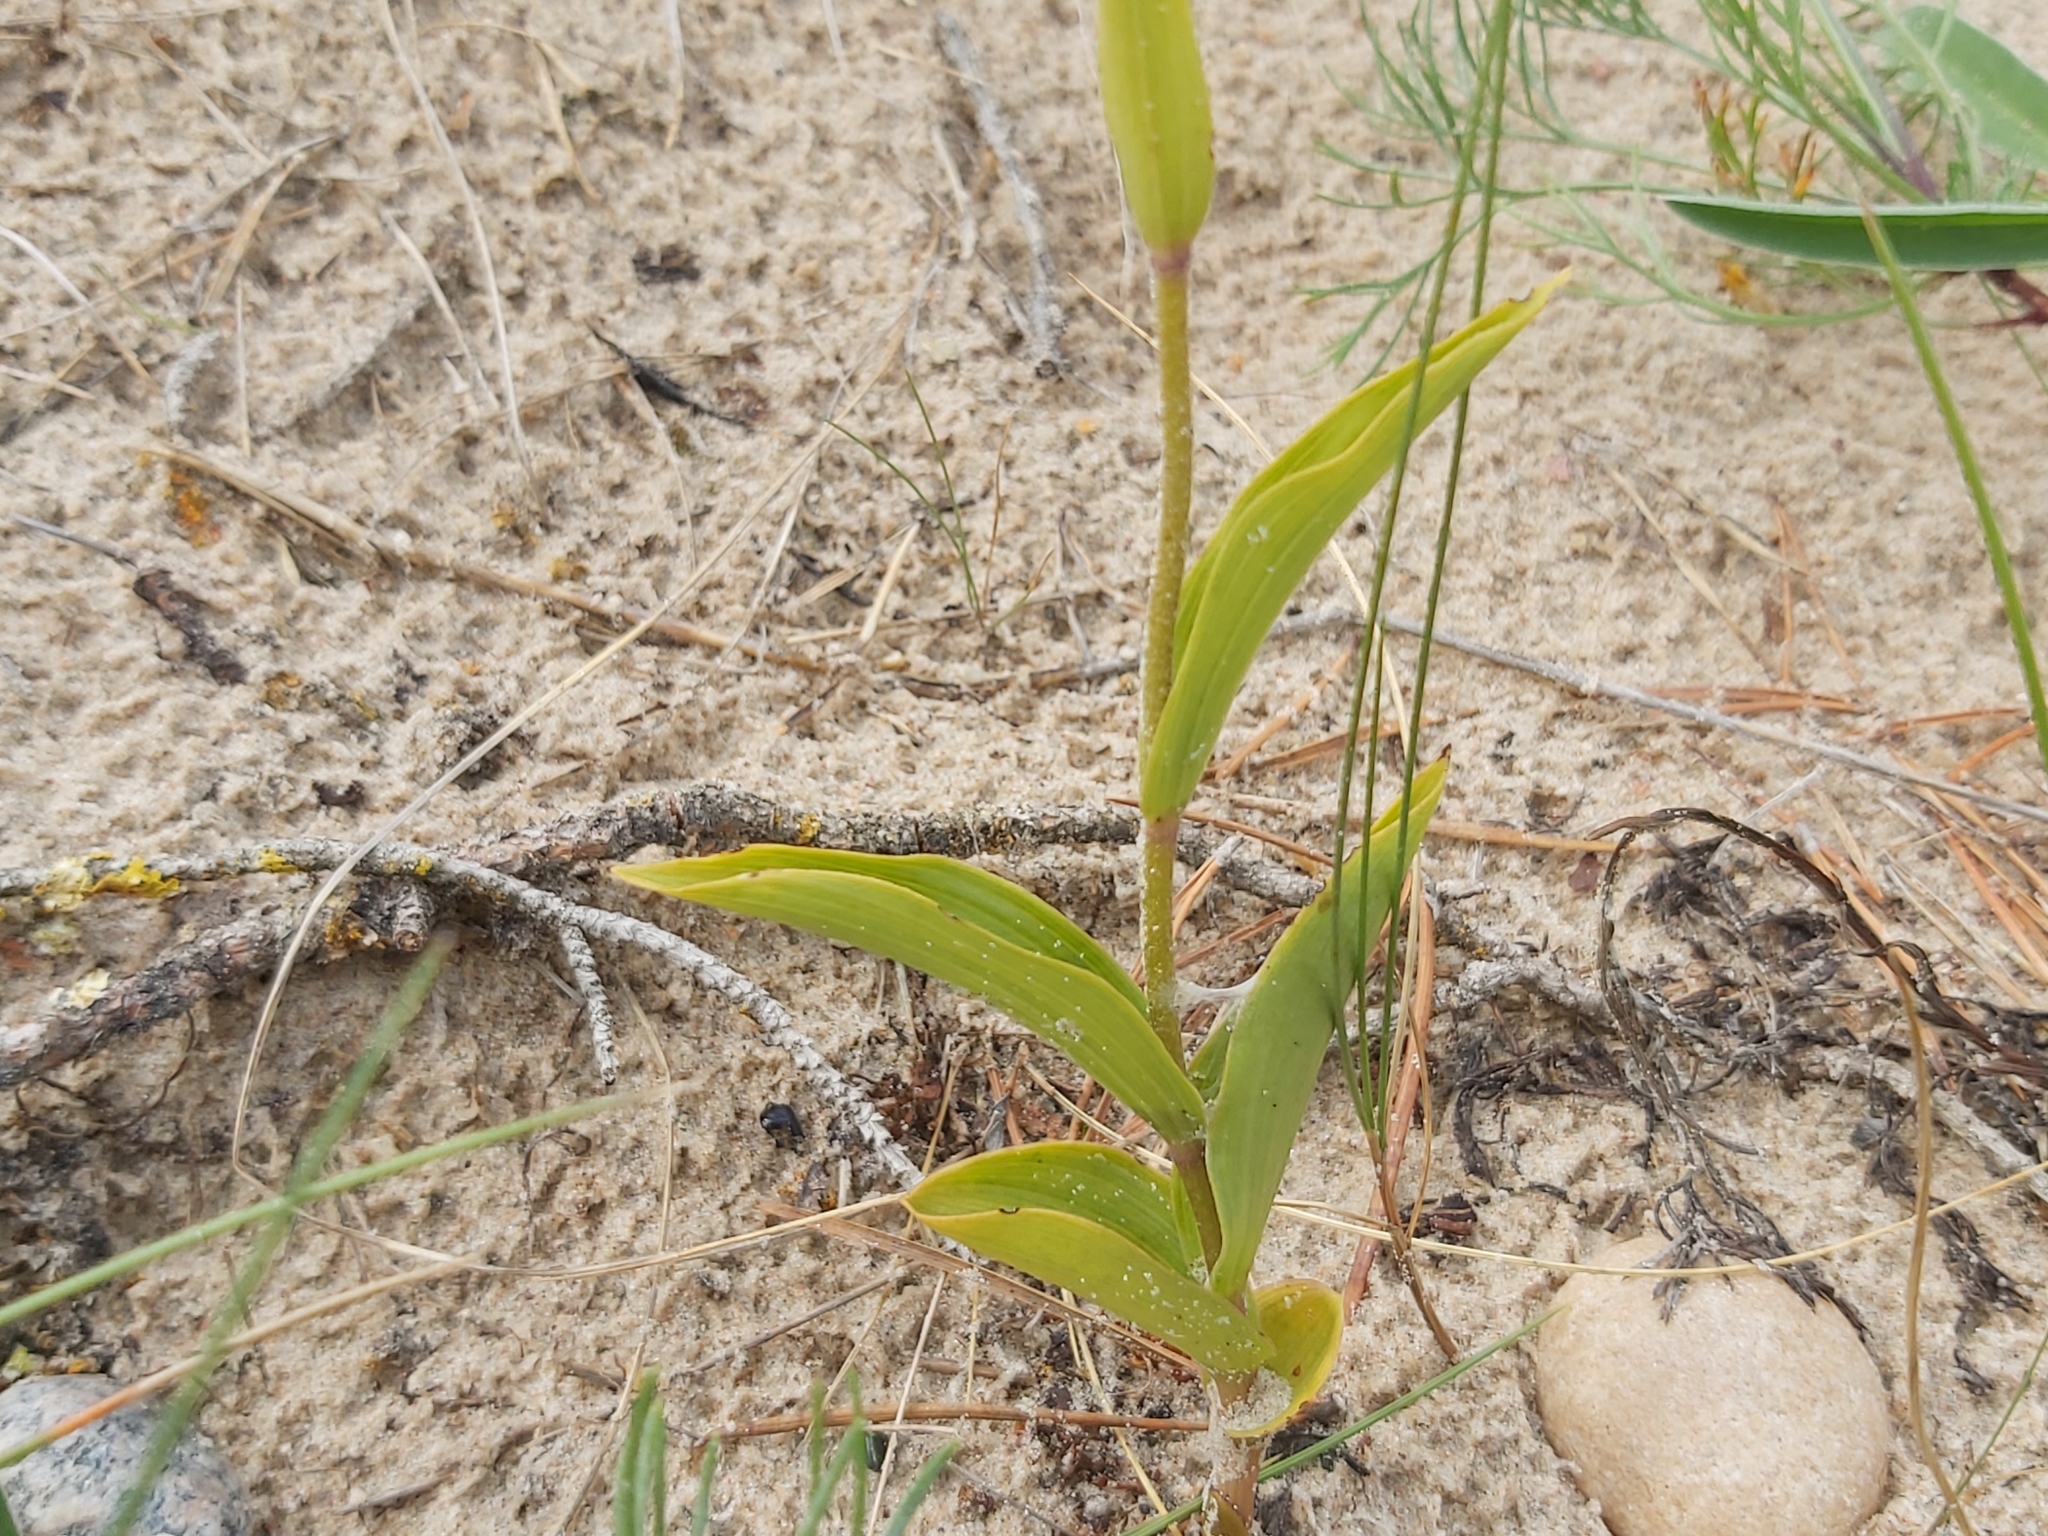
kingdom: Plantae
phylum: Tracheophyta
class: Liliopsida
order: Asparagales
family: Orchidaceae
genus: Epipactis
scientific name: Epipactis atrorubens
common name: Dark-red helleborine
